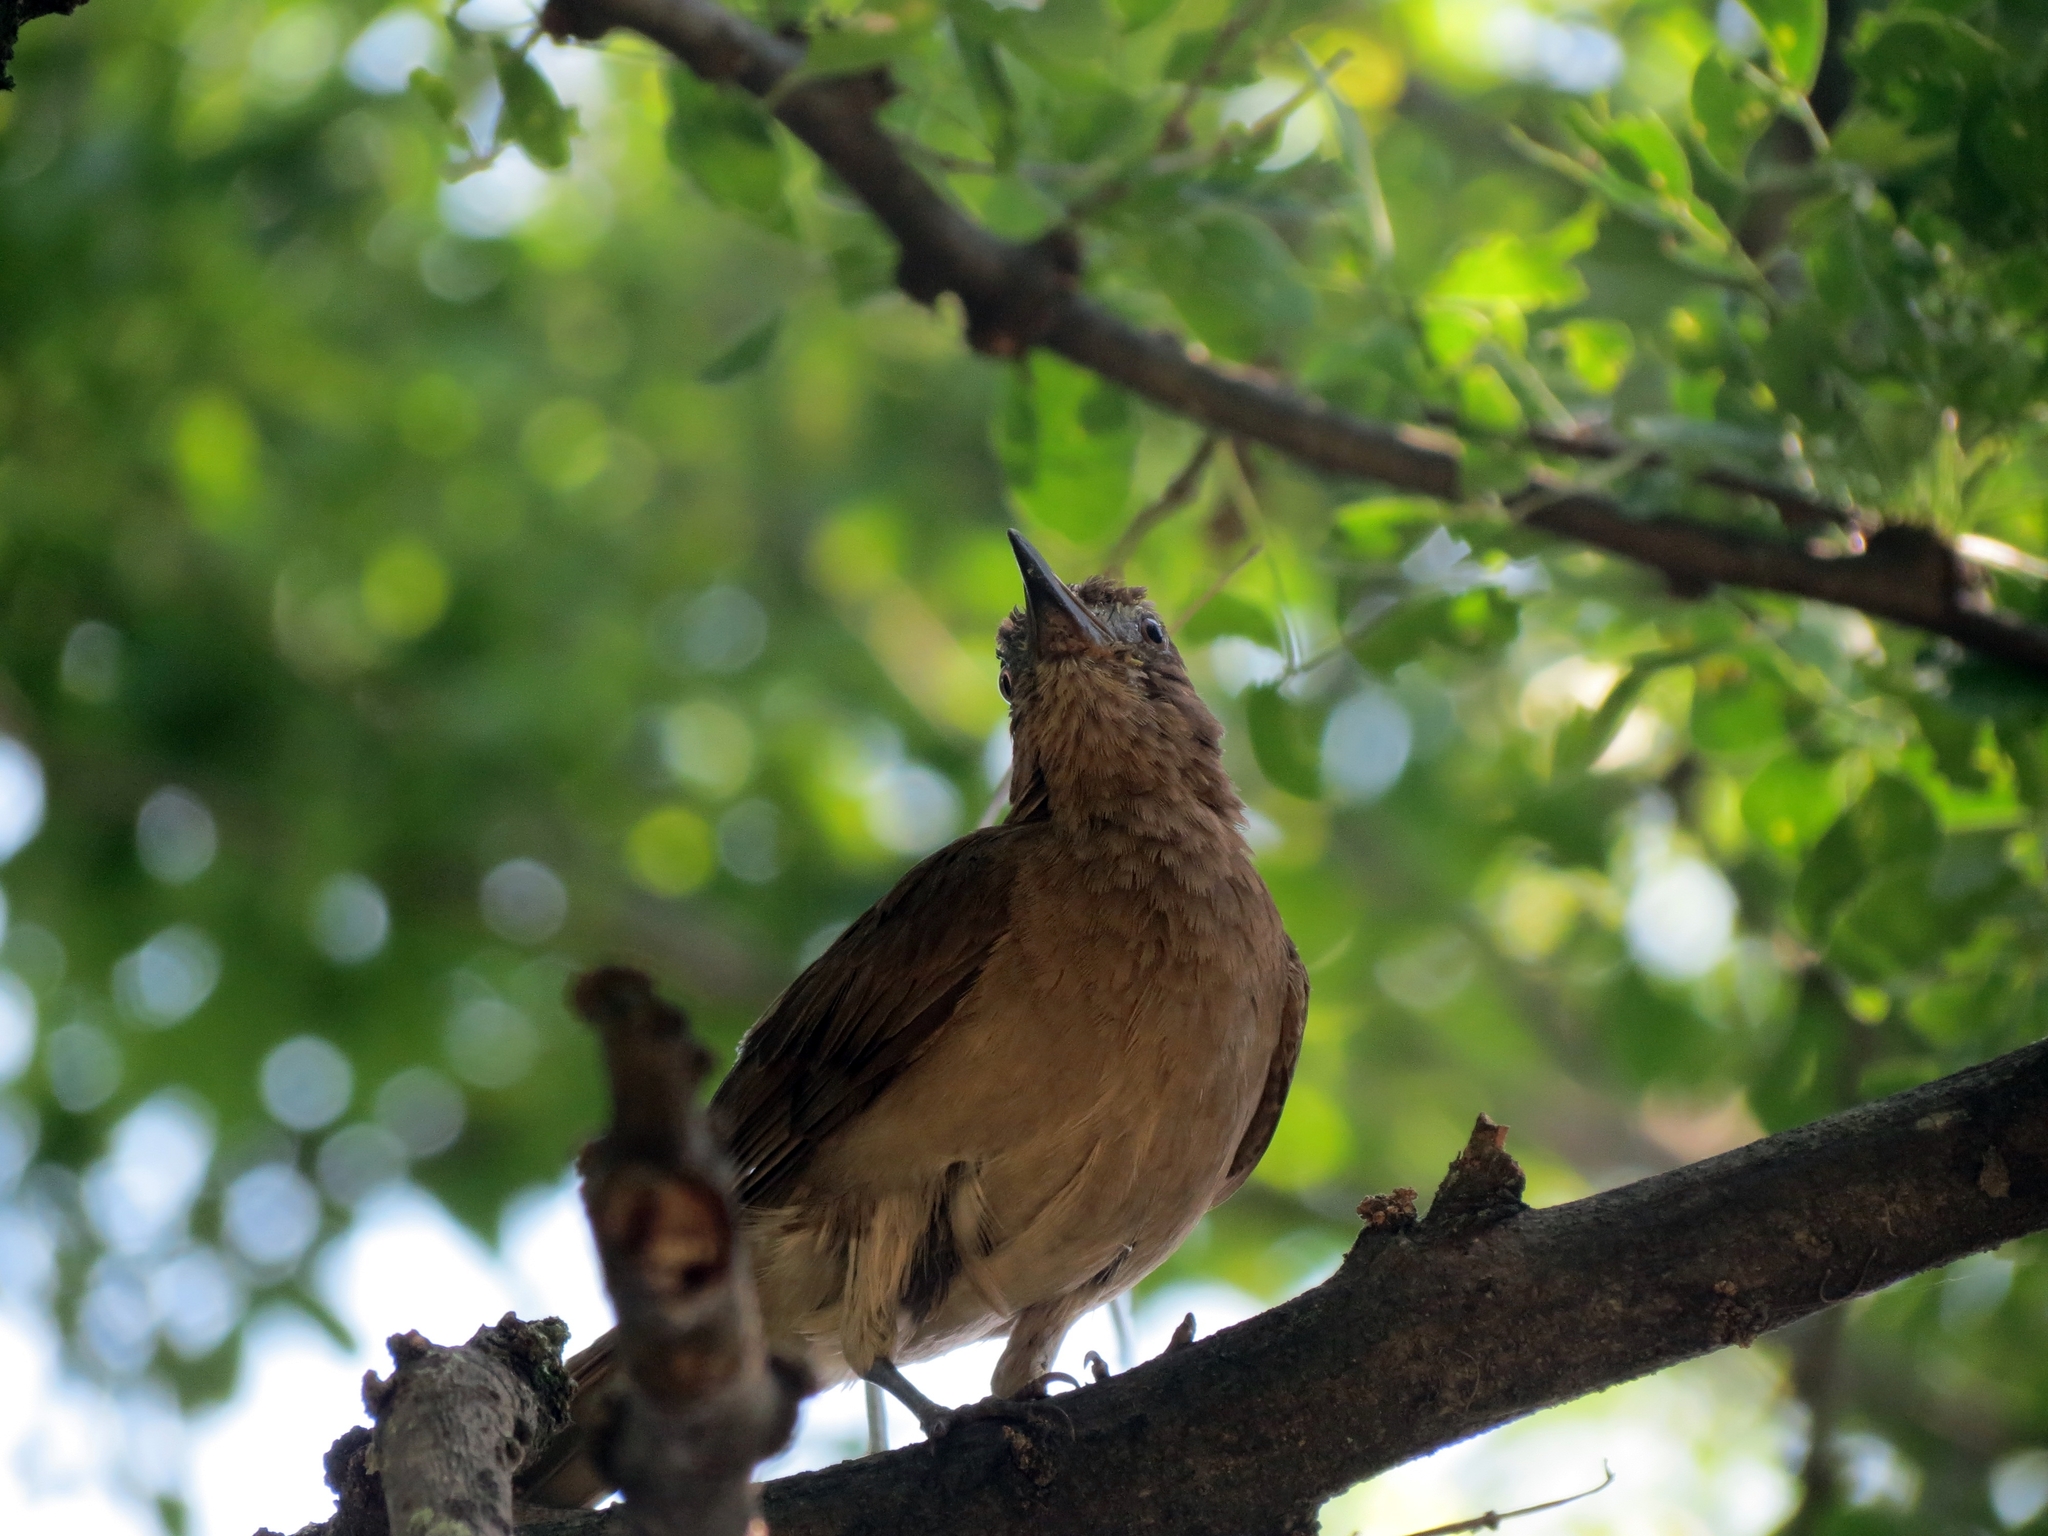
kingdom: Animalia
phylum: Chordata
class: Aves
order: Passeriformes
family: Turdidae
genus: Turdus
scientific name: Turdus ignobilis
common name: Black-billed thrush
